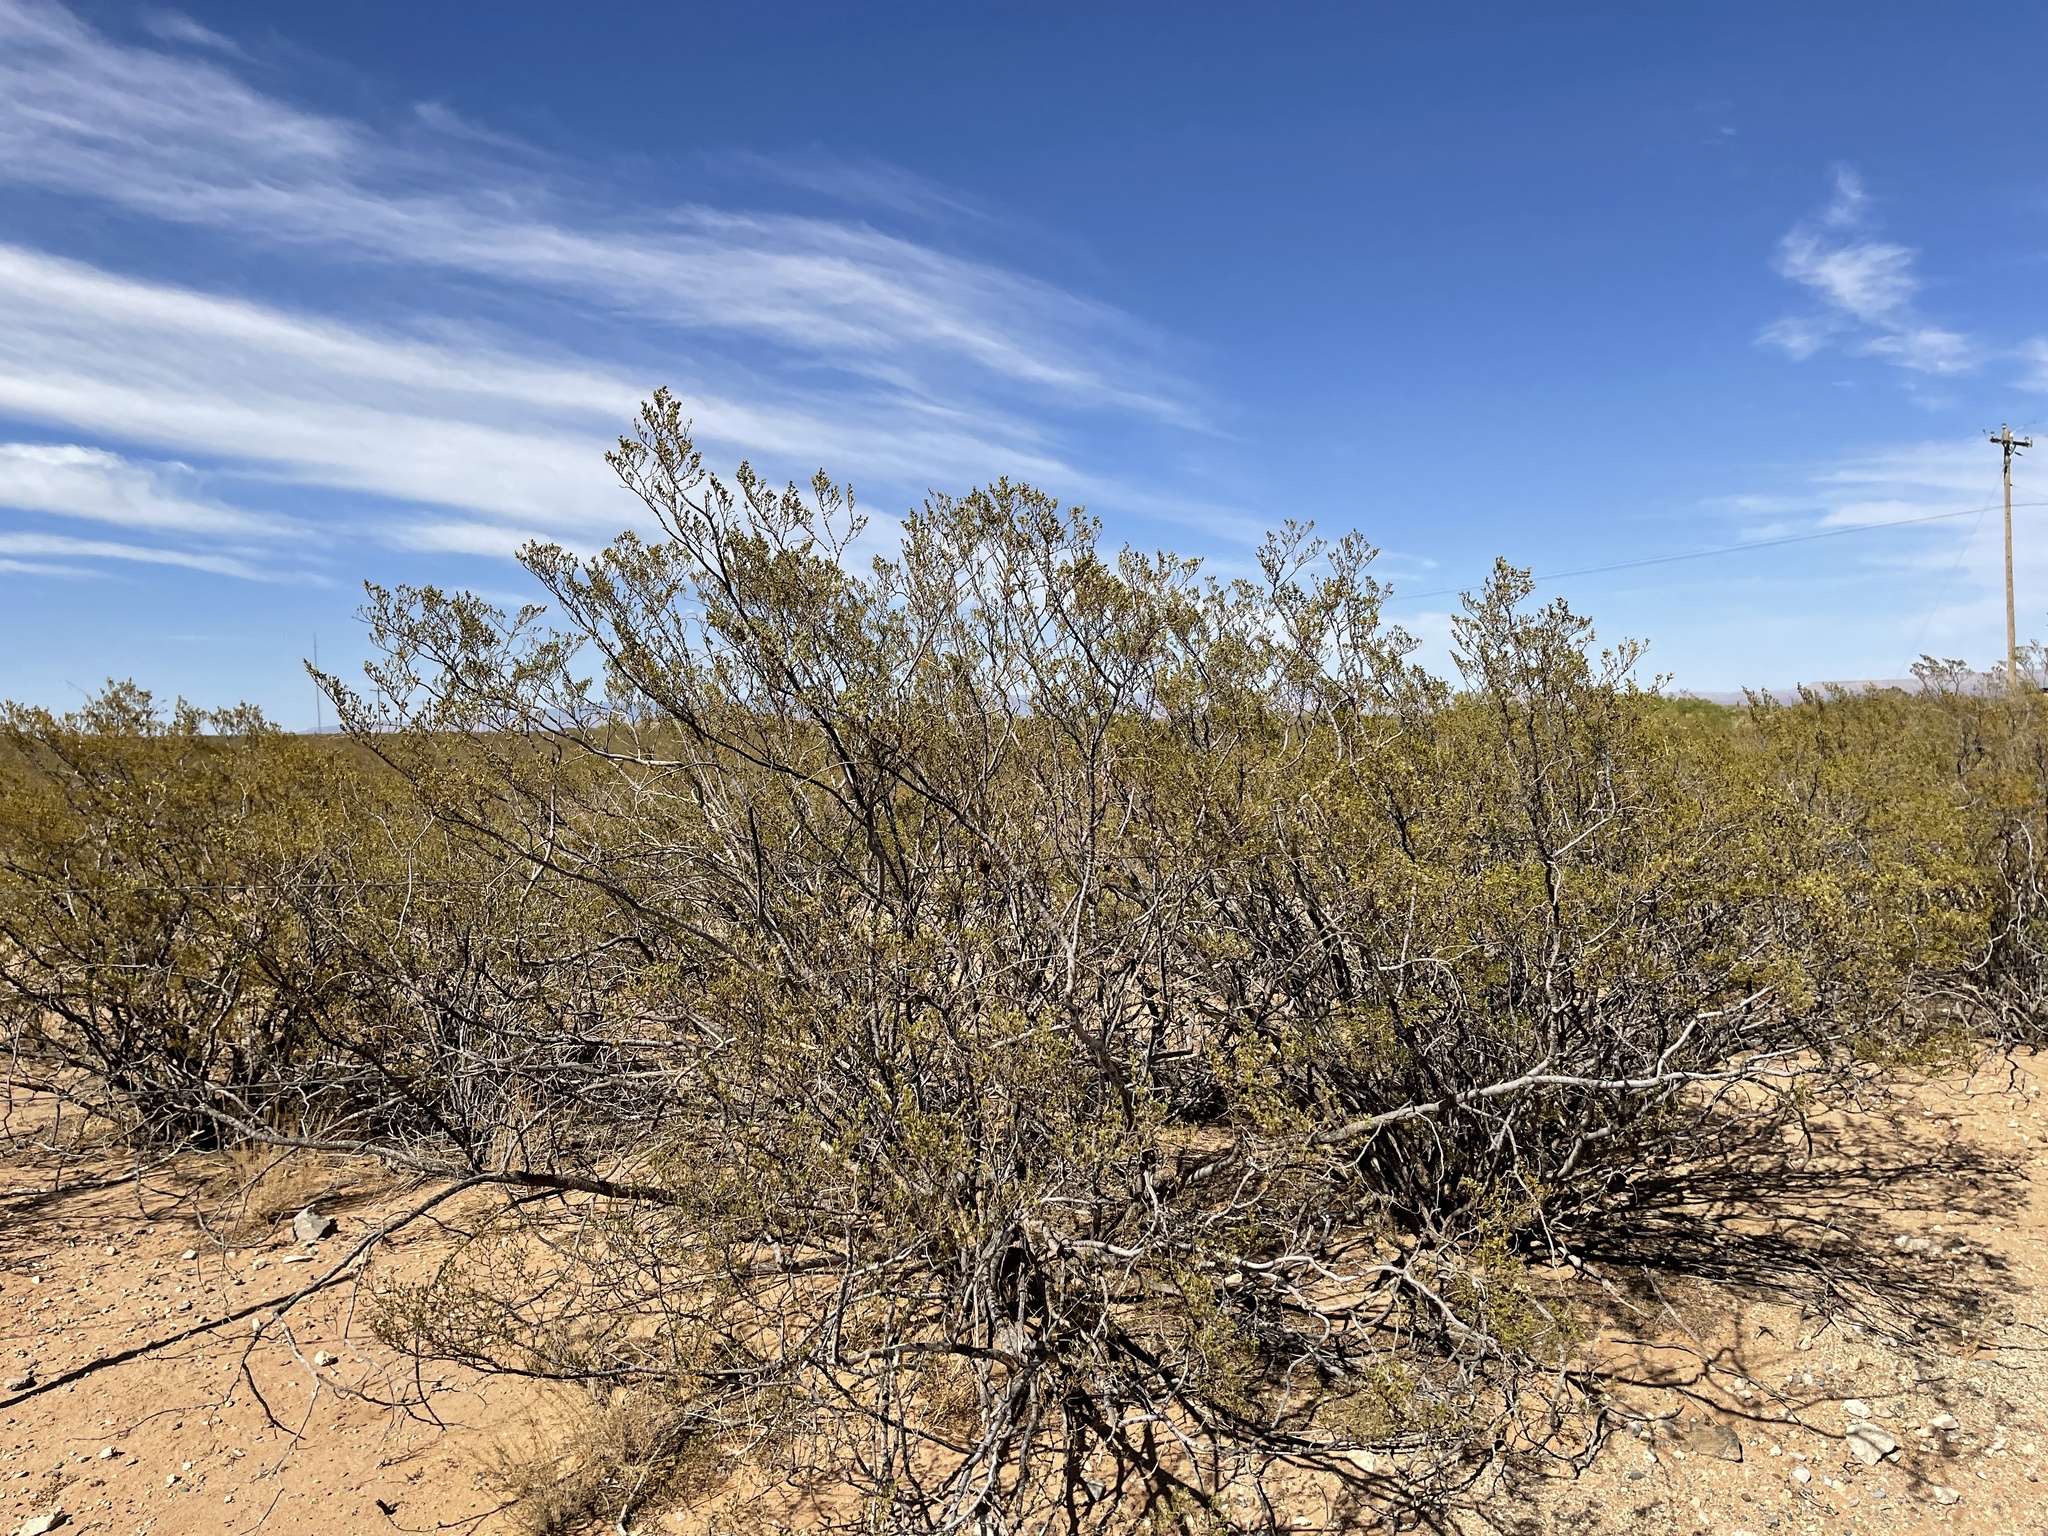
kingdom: Plantae
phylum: Tracheophyta
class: Magnoliopsida
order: Zygophyllales
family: Zygophyllaceae
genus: Larrea
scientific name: Larrea tridentata
